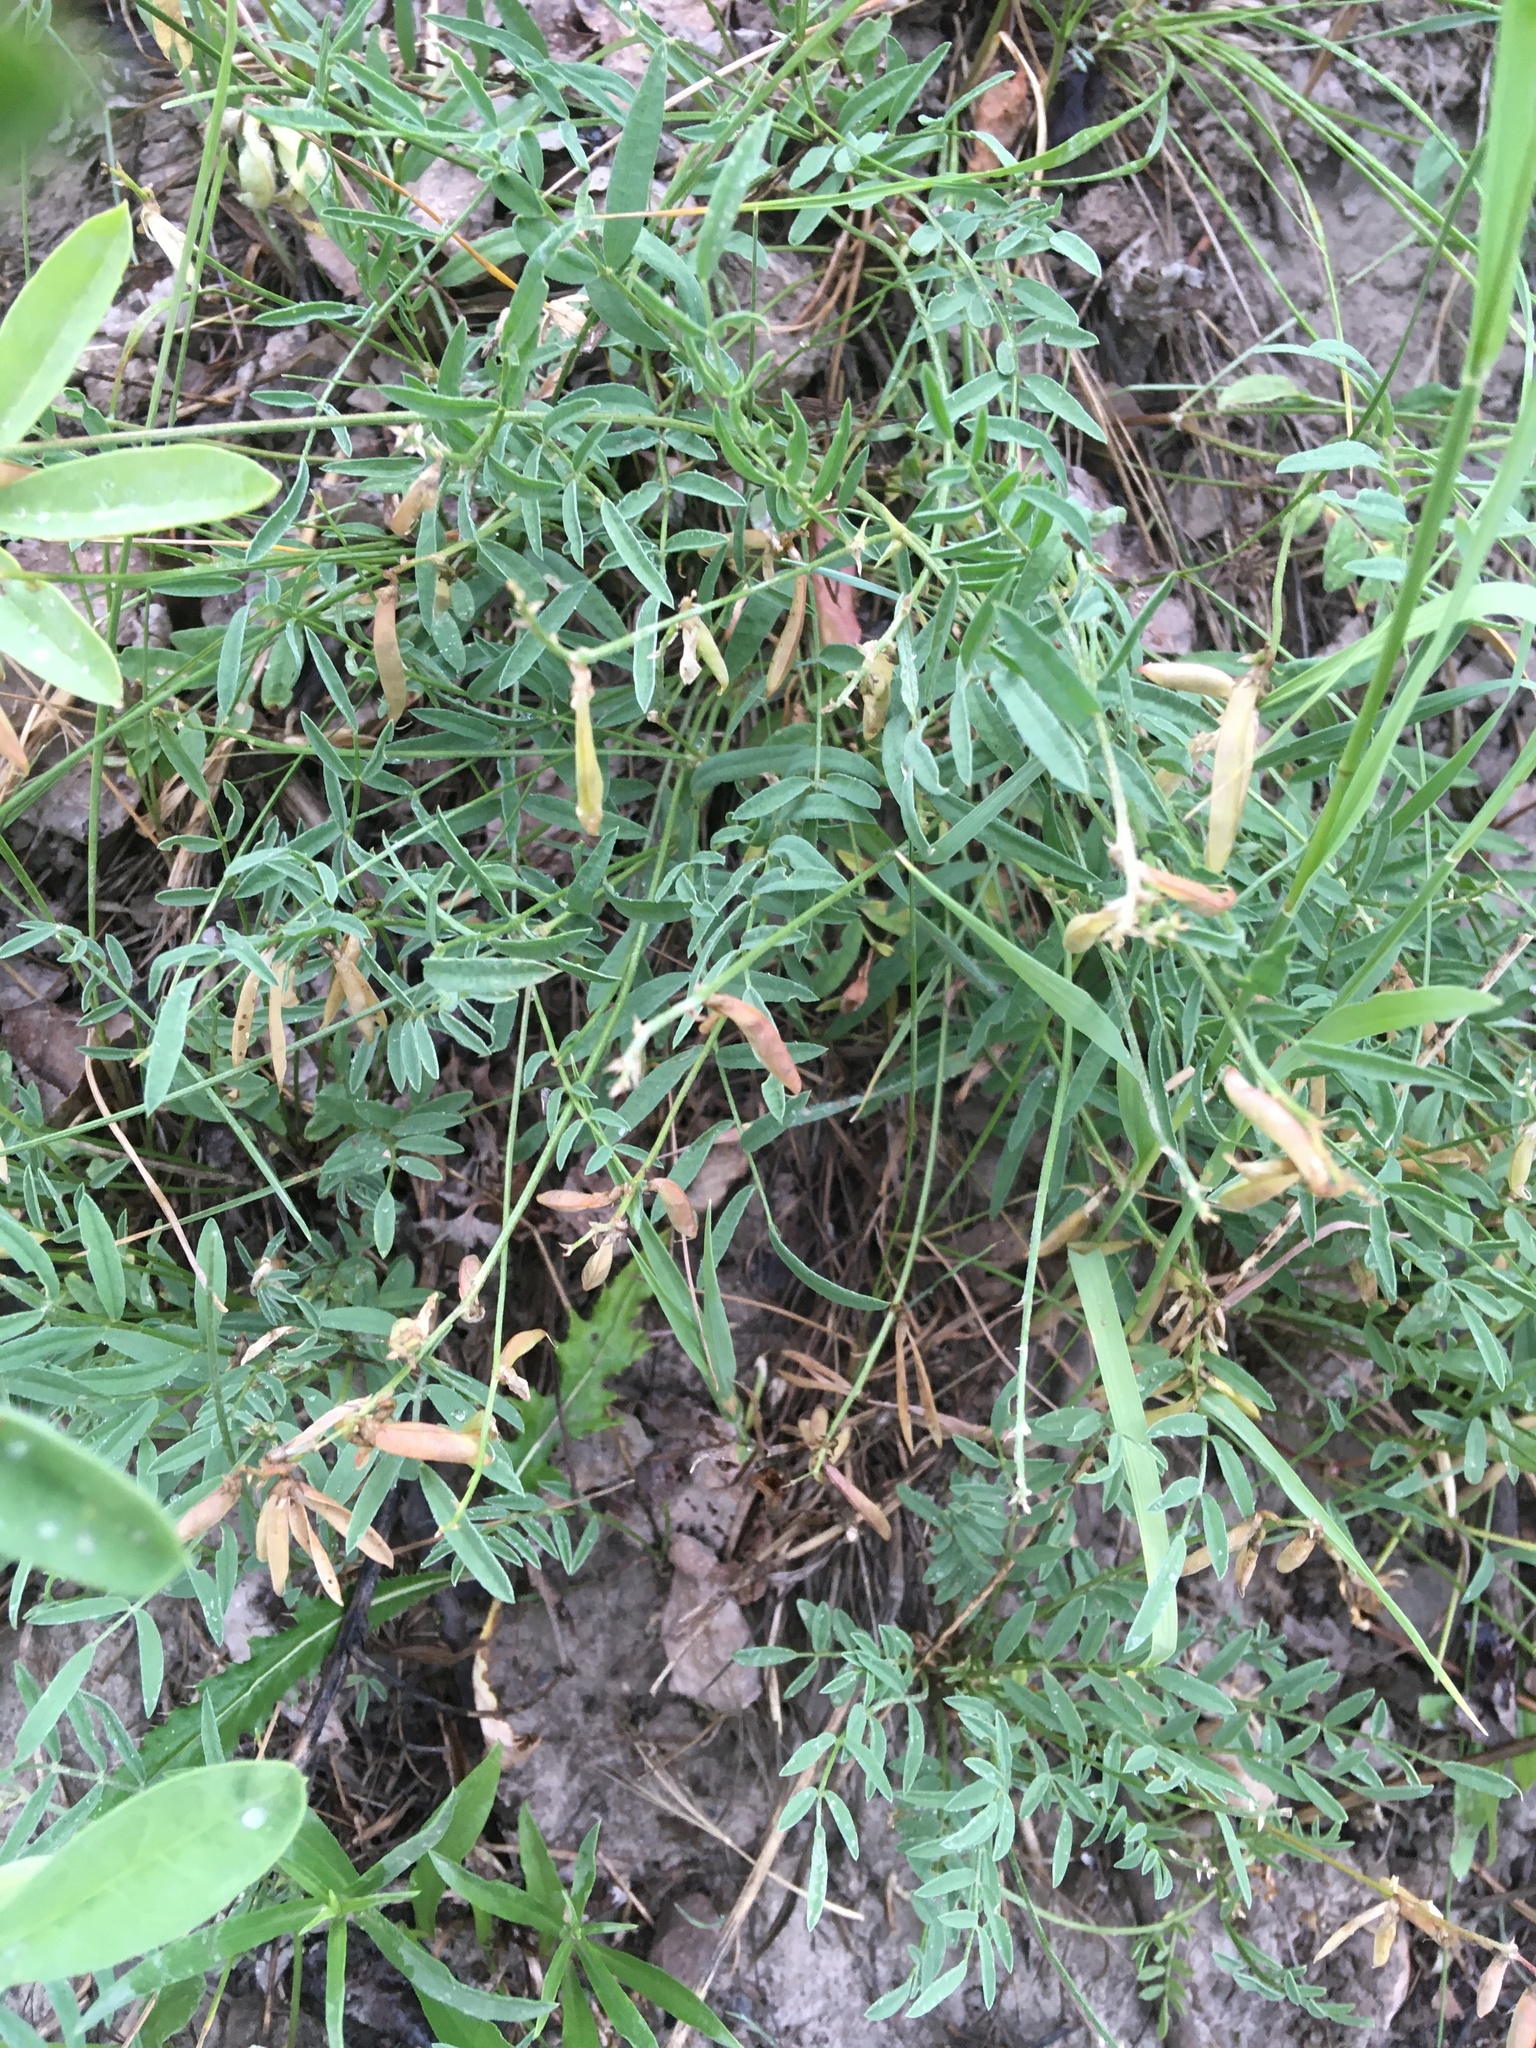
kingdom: Plantae
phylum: Tracheophyta
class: Magnoliopsida
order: Fabales
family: Fabaceae
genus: Astragalus
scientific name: Astragalus miser
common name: Timber milkvetch
